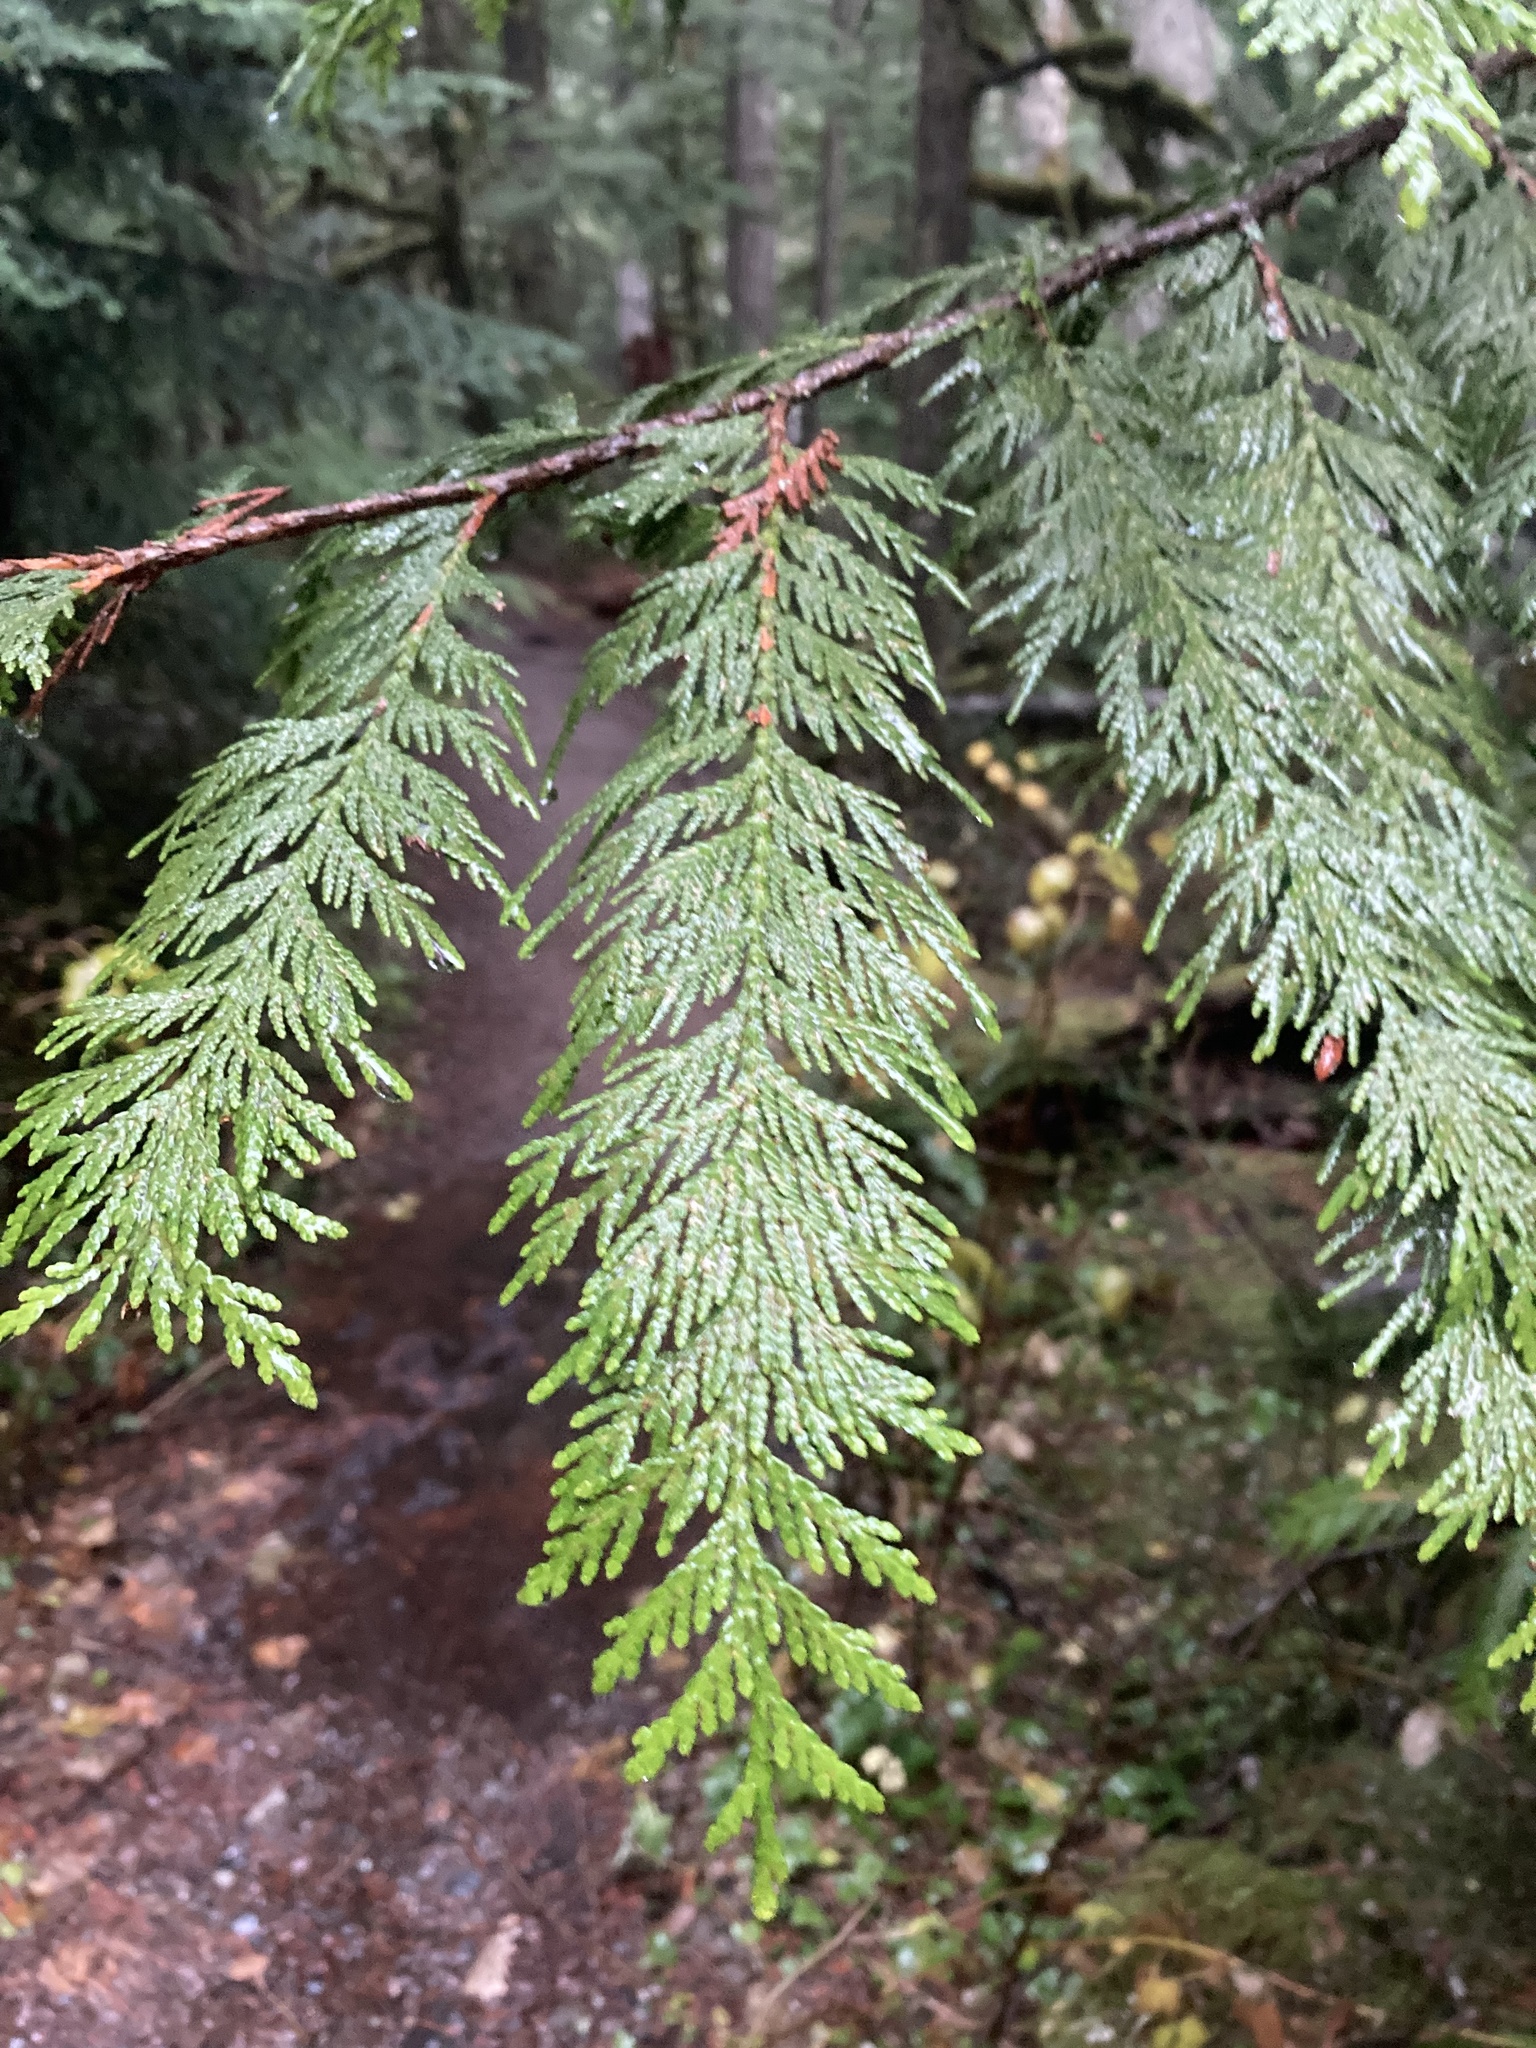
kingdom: Plantae
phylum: Tracheophyta
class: Pinopsida
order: Pinales
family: Cupressaceae
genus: Thuja
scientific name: Thuja plicata
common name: Western red-cedar
